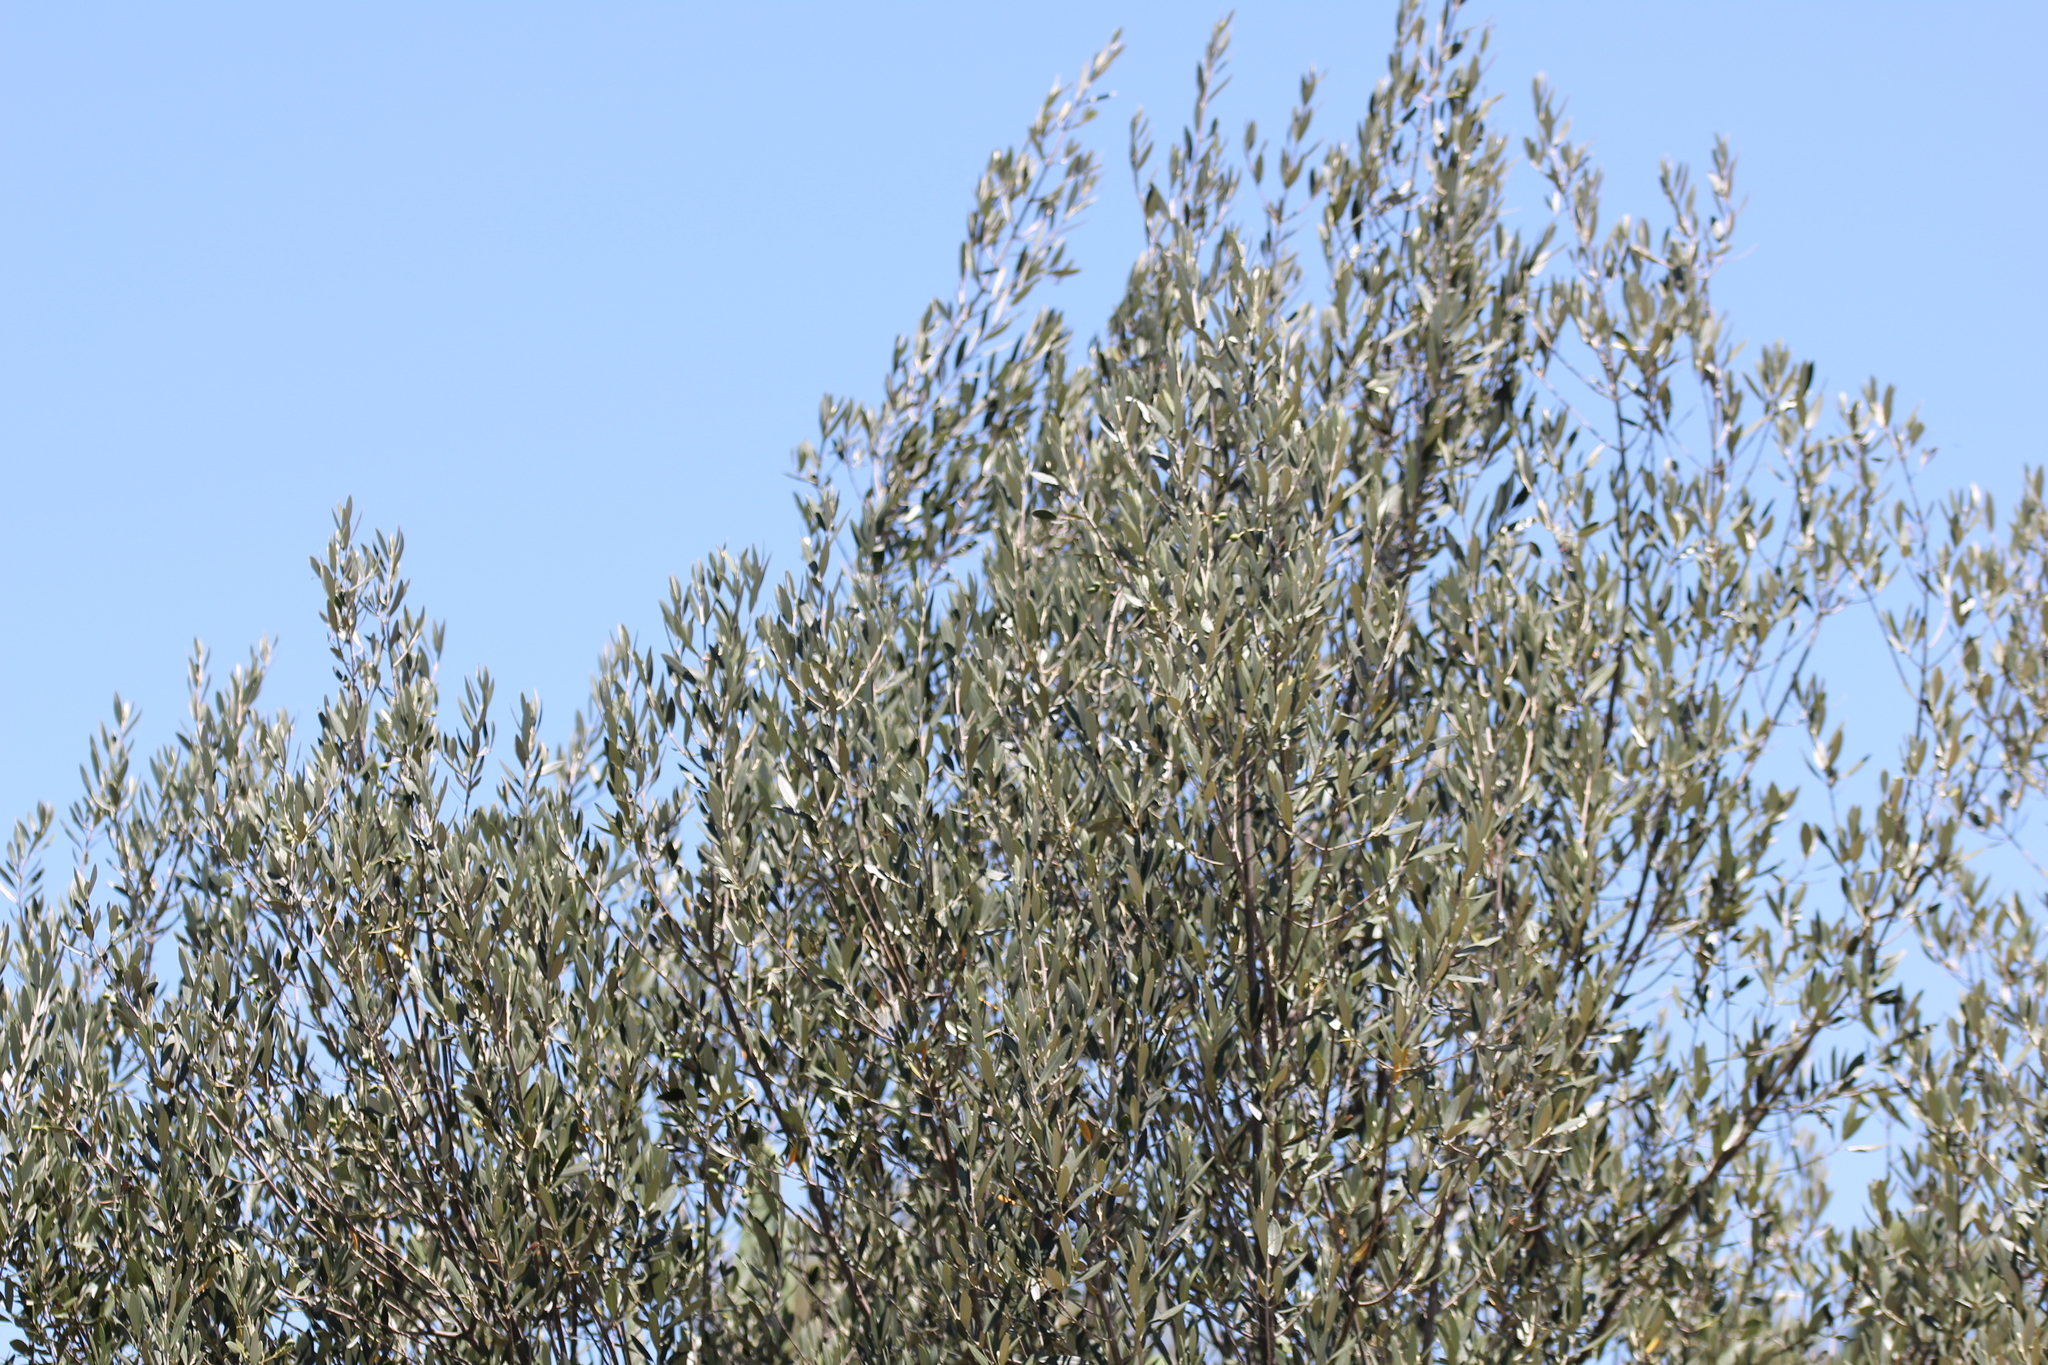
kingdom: Plantae
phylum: Tracheophyta
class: Magnoliopsida
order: Lamiales
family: Oleaceae
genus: Olea
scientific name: Olea europaea
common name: Olive
